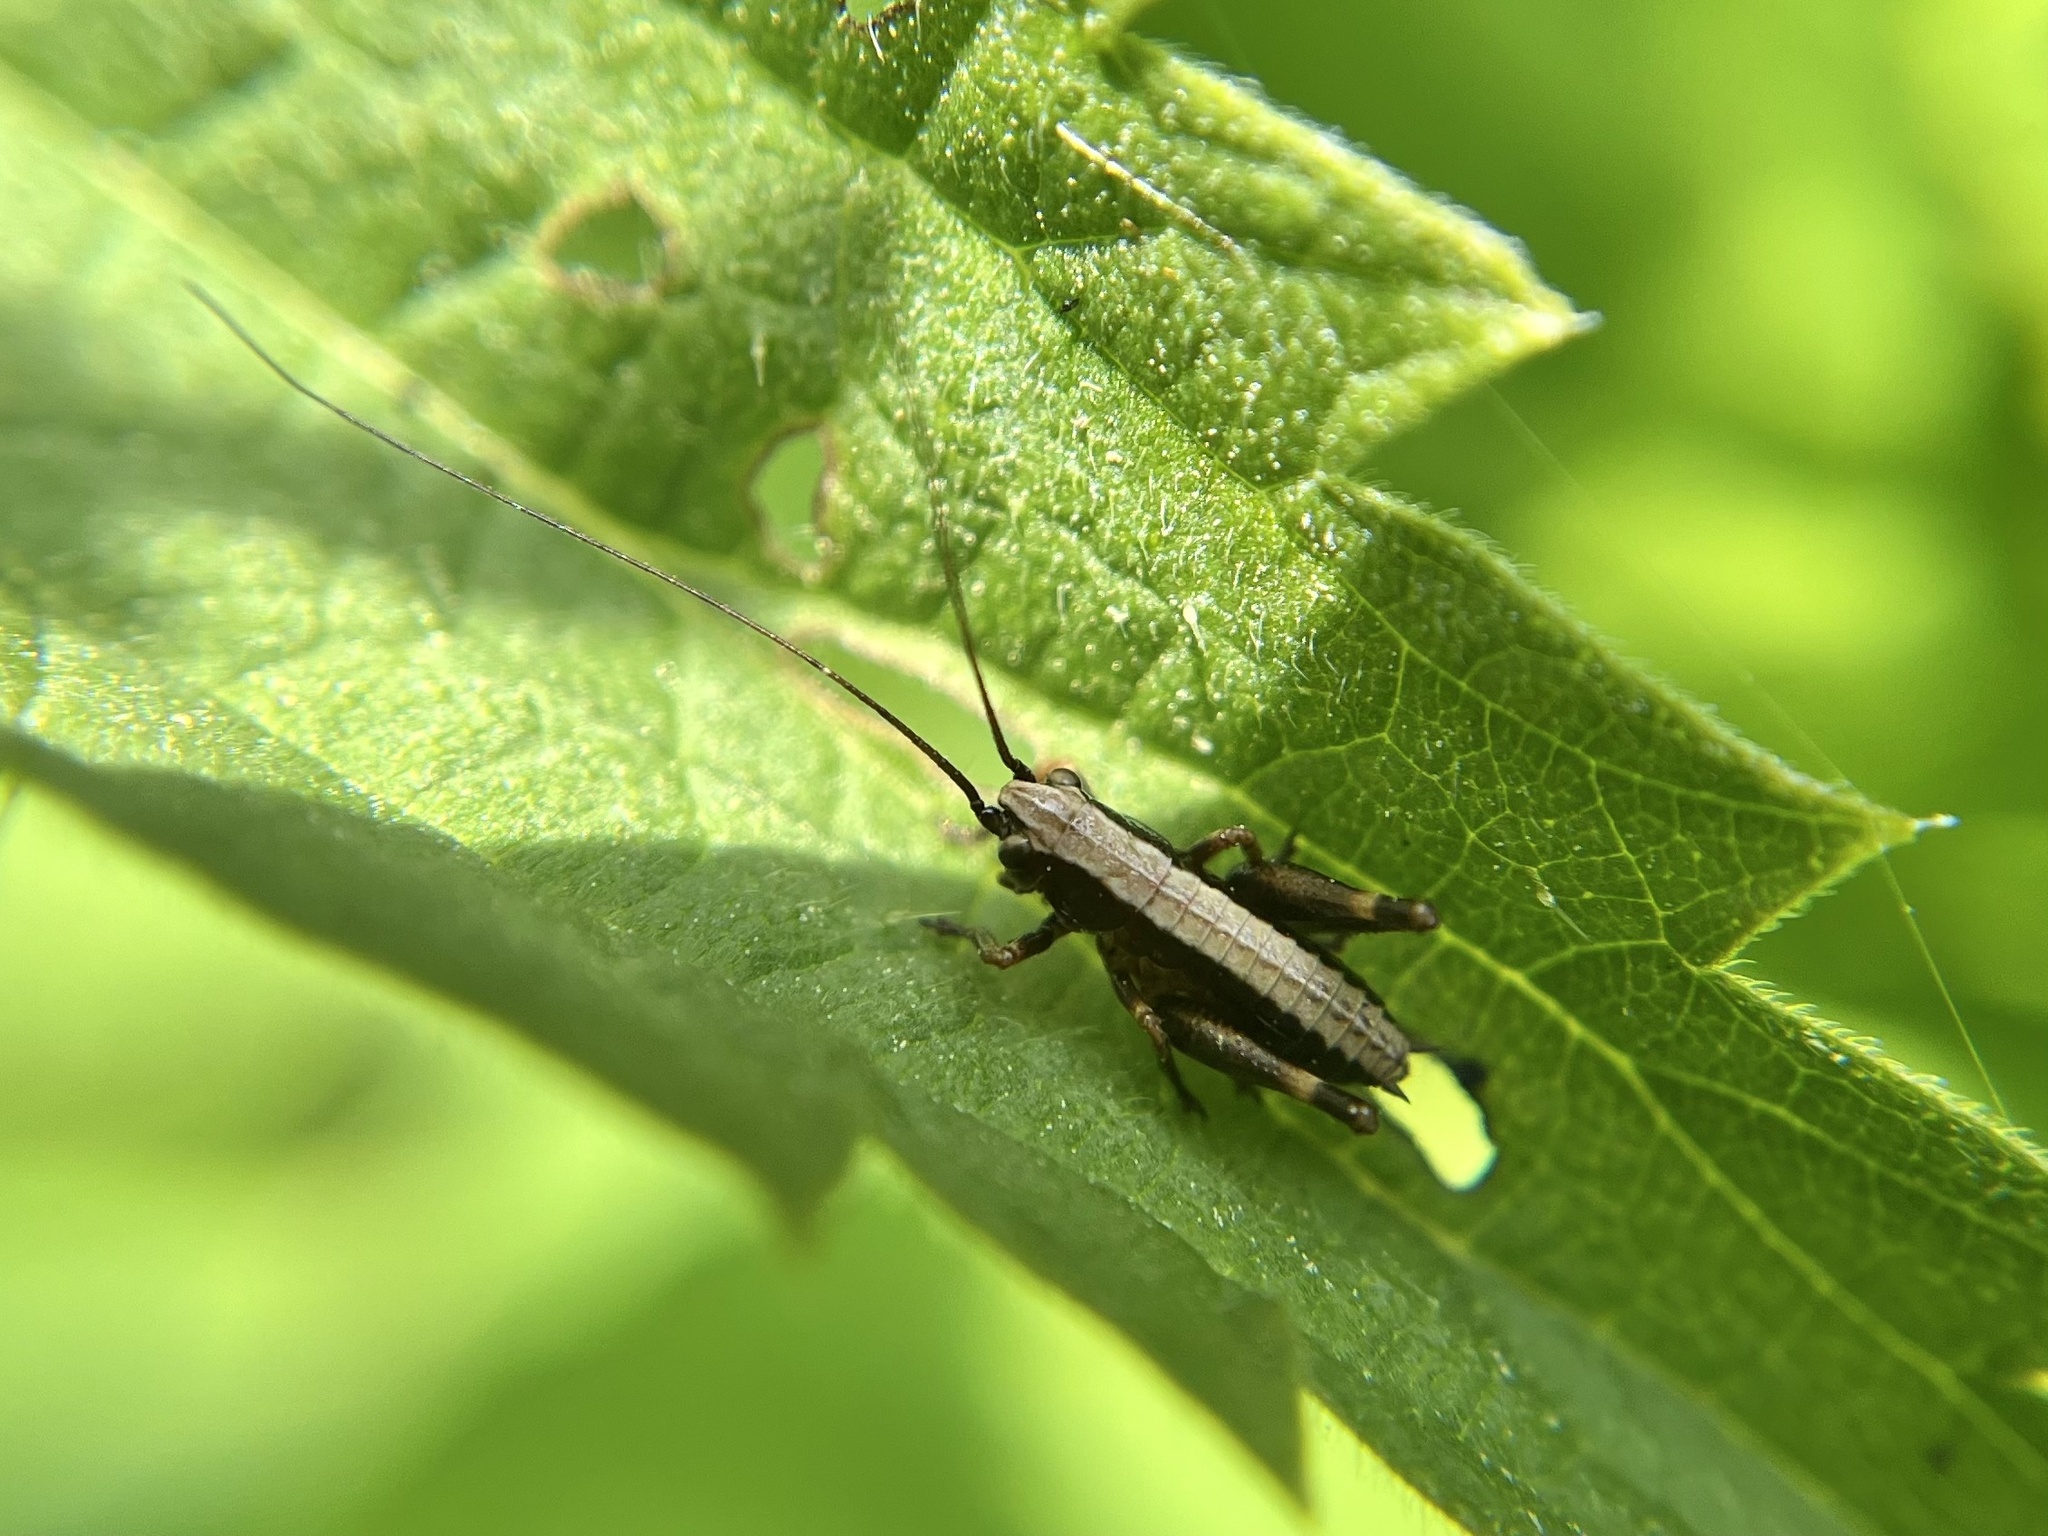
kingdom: Animalia
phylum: Arthropoda
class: Insecta
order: Orthoptera
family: Tettigoniidae
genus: Pholidoptera
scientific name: Pholidoptera griseoaptera
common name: Dark bush-cricket
